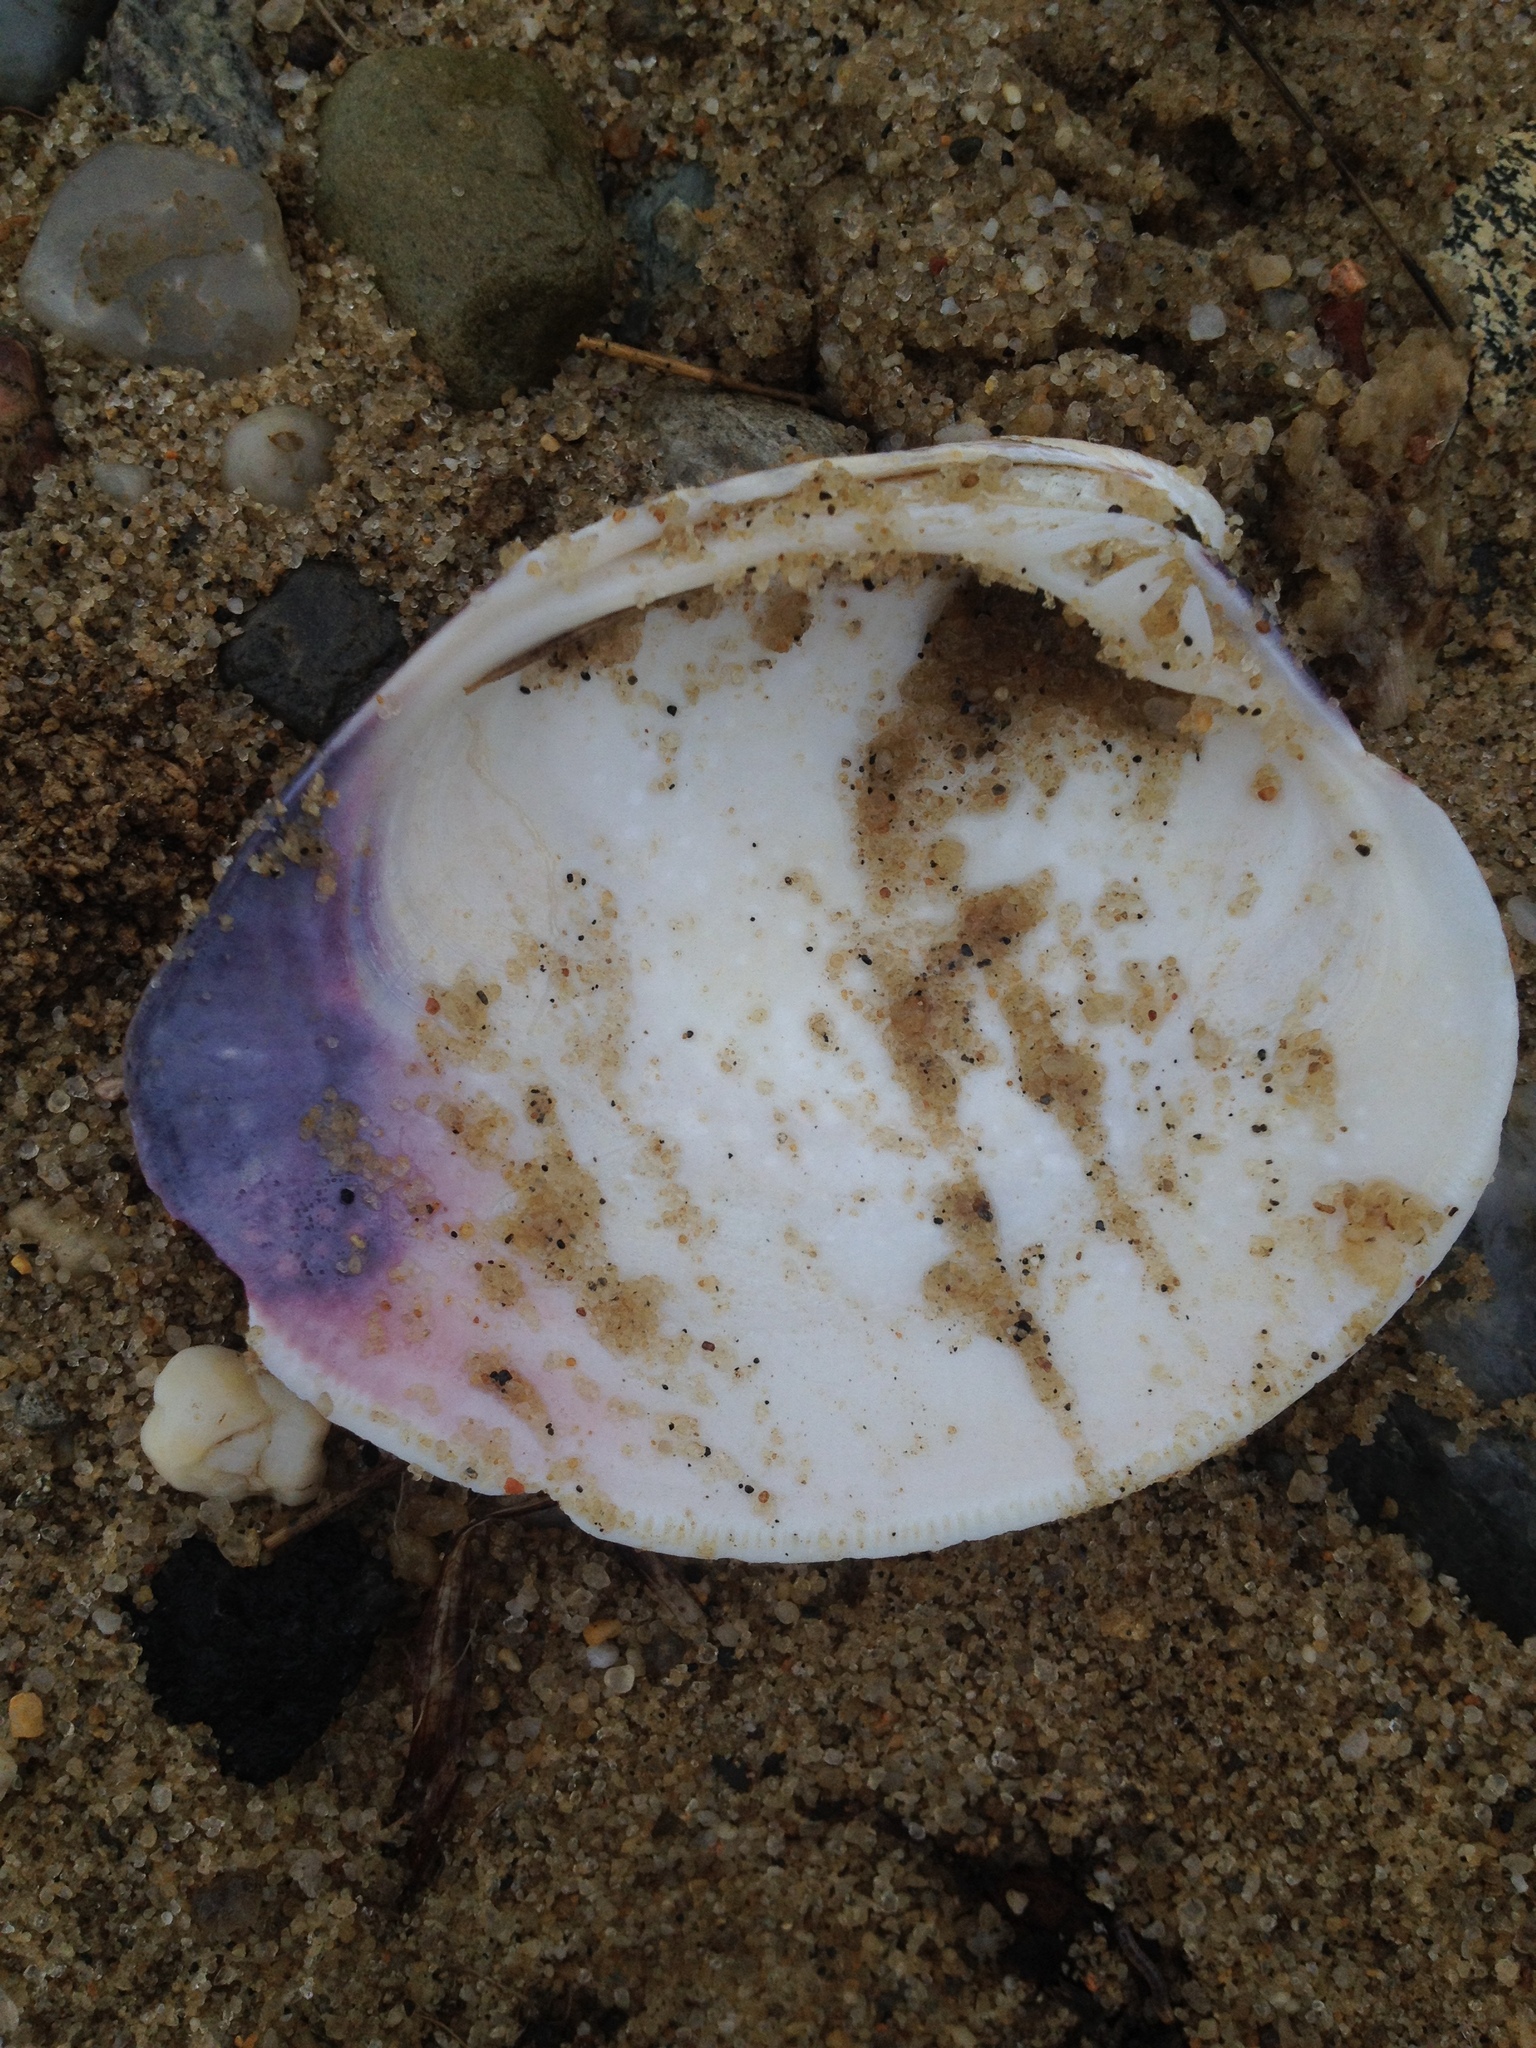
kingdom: Animalia
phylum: Mollusca
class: Bivalvia
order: Venerida
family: Veneridae
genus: Mercenaria
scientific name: Mercenaria mercenaria
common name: American hard-shelled clam
